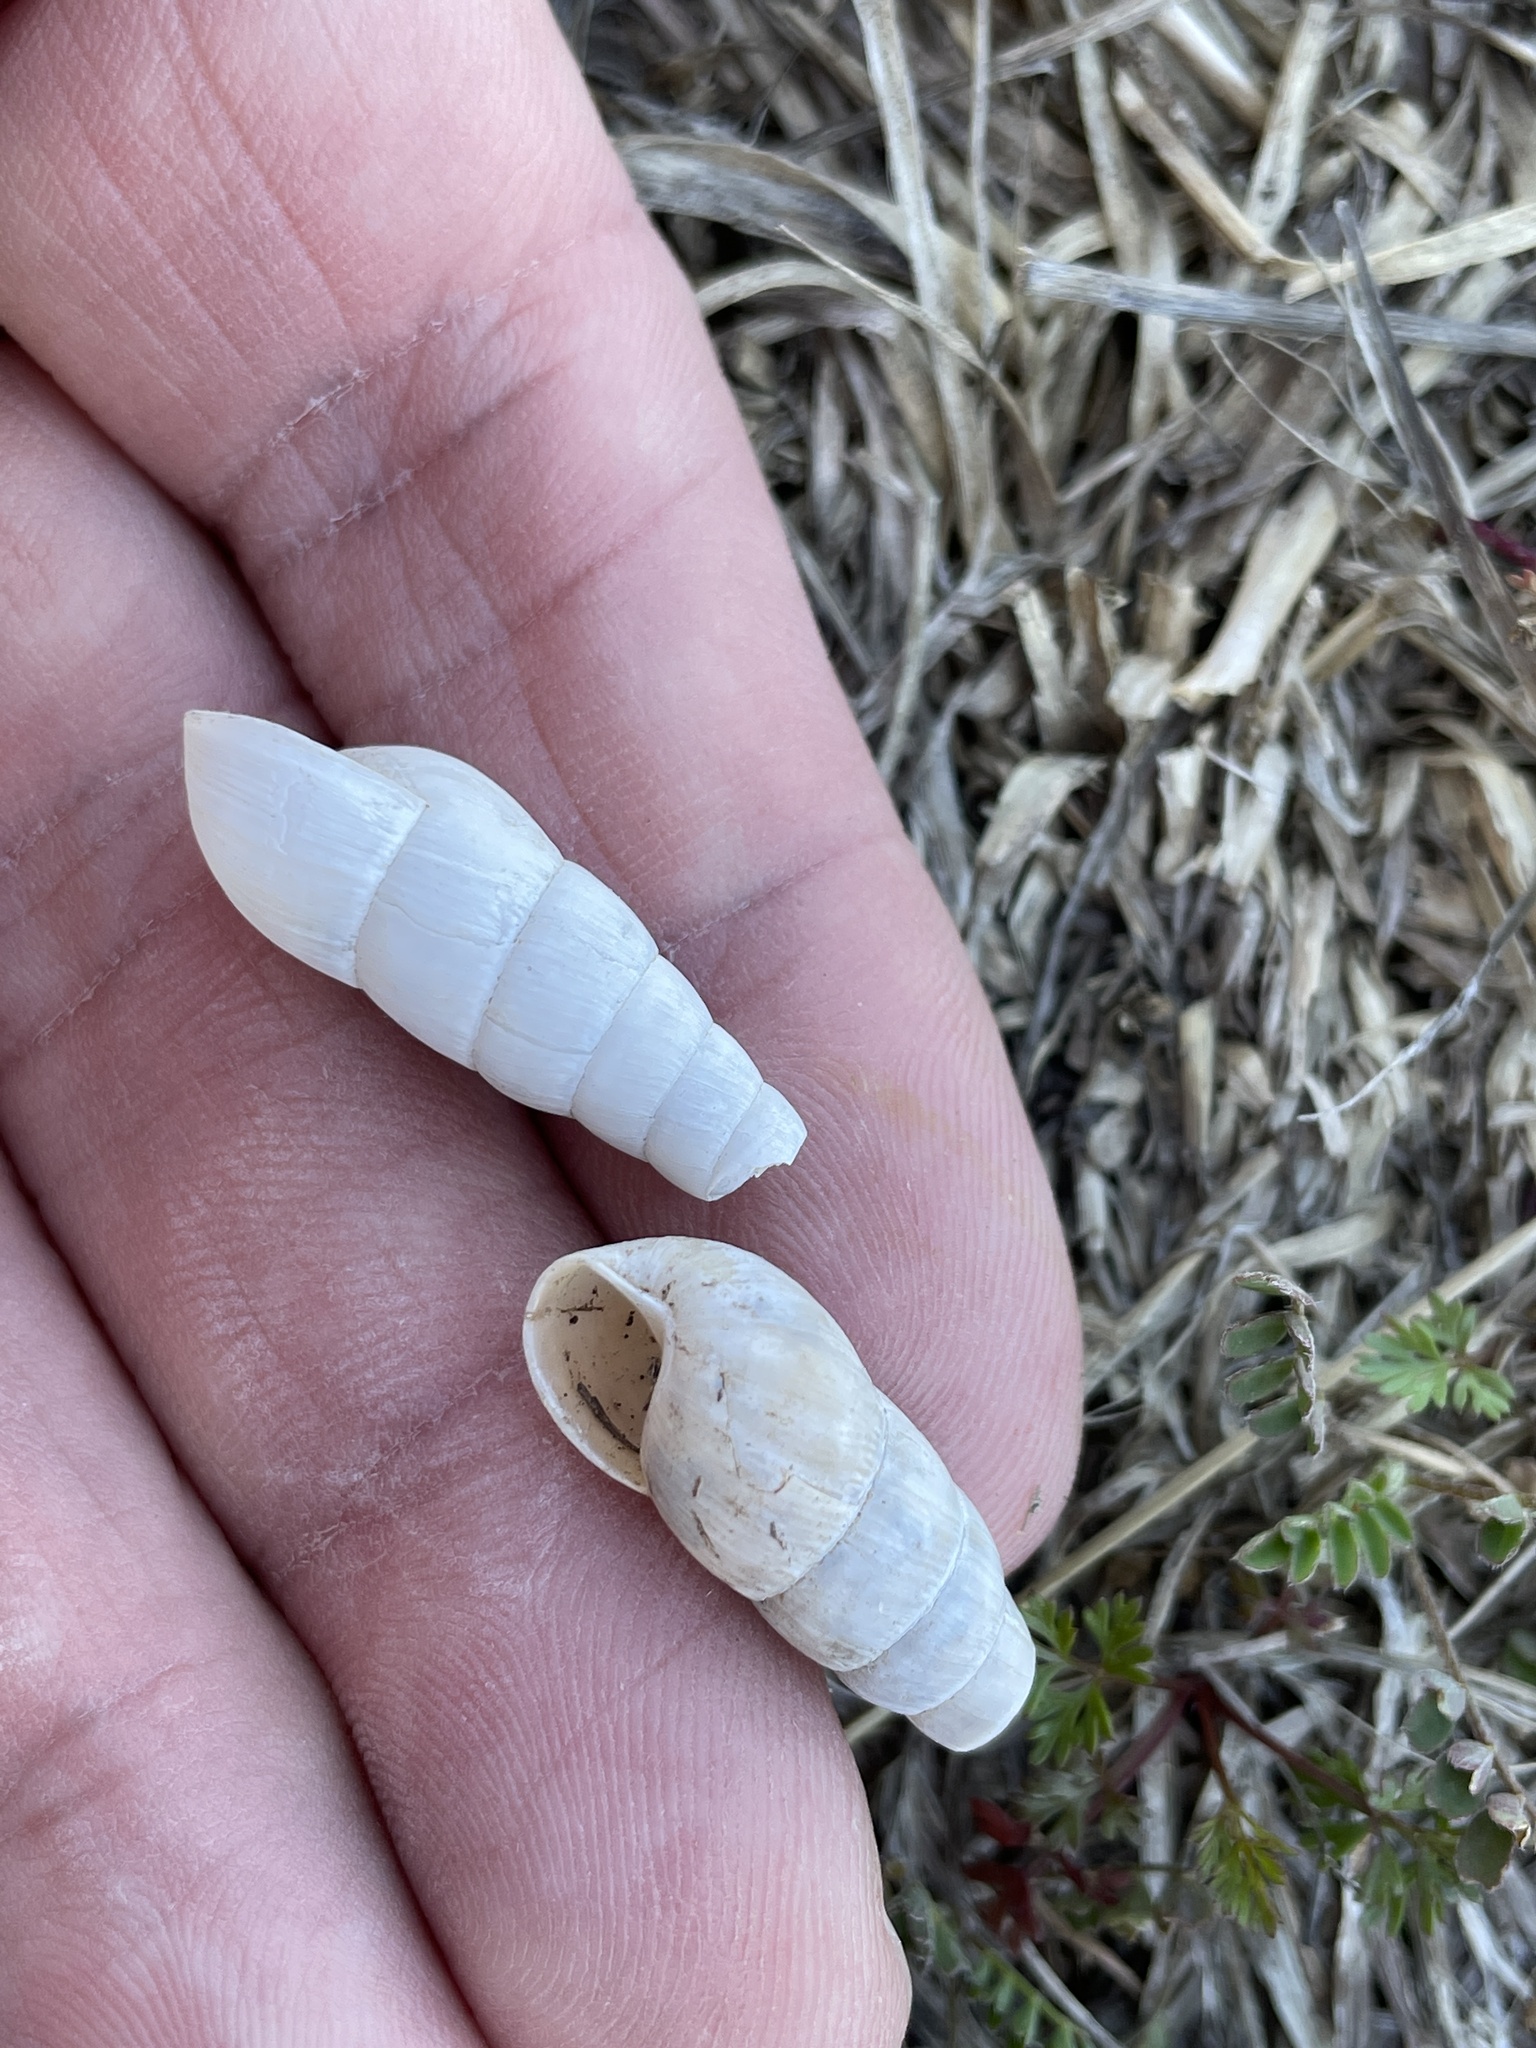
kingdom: Animalia
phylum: Mollusca
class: Gastropoda
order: Stylommatophora
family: Achatinidae
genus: Rumina
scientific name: Rumina decollata
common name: Decollate snail
